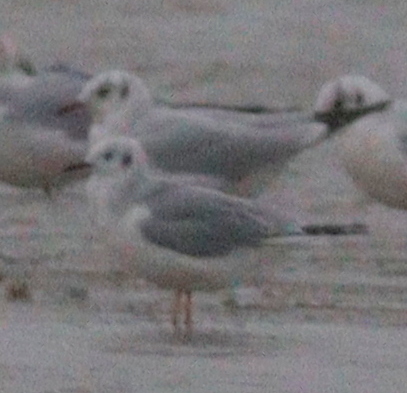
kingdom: Animalia
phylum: Chordata
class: Aves
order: Charadriiformes
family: Laridae
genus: Chroicocephalus
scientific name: Chroicocephalus philadelphia
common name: Bonaparte's gull
